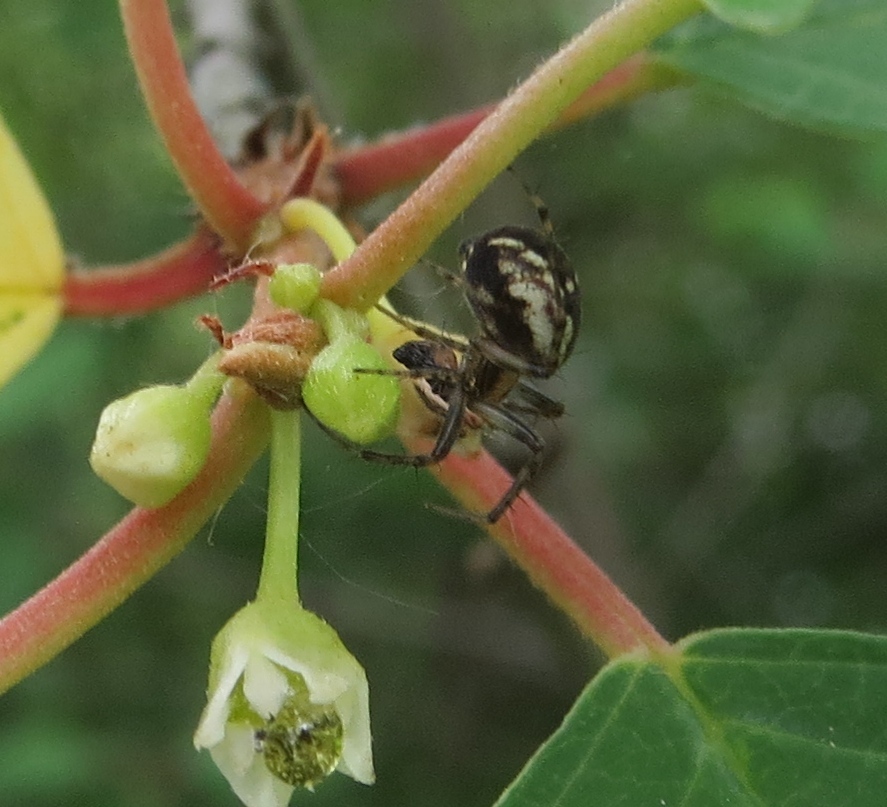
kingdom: Animalia
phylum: Arthropoda
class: Arachnida
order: Araneae
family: Araneidae
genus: Mangora
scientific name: Mangora placida
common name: Tuft-legged orbweaver
